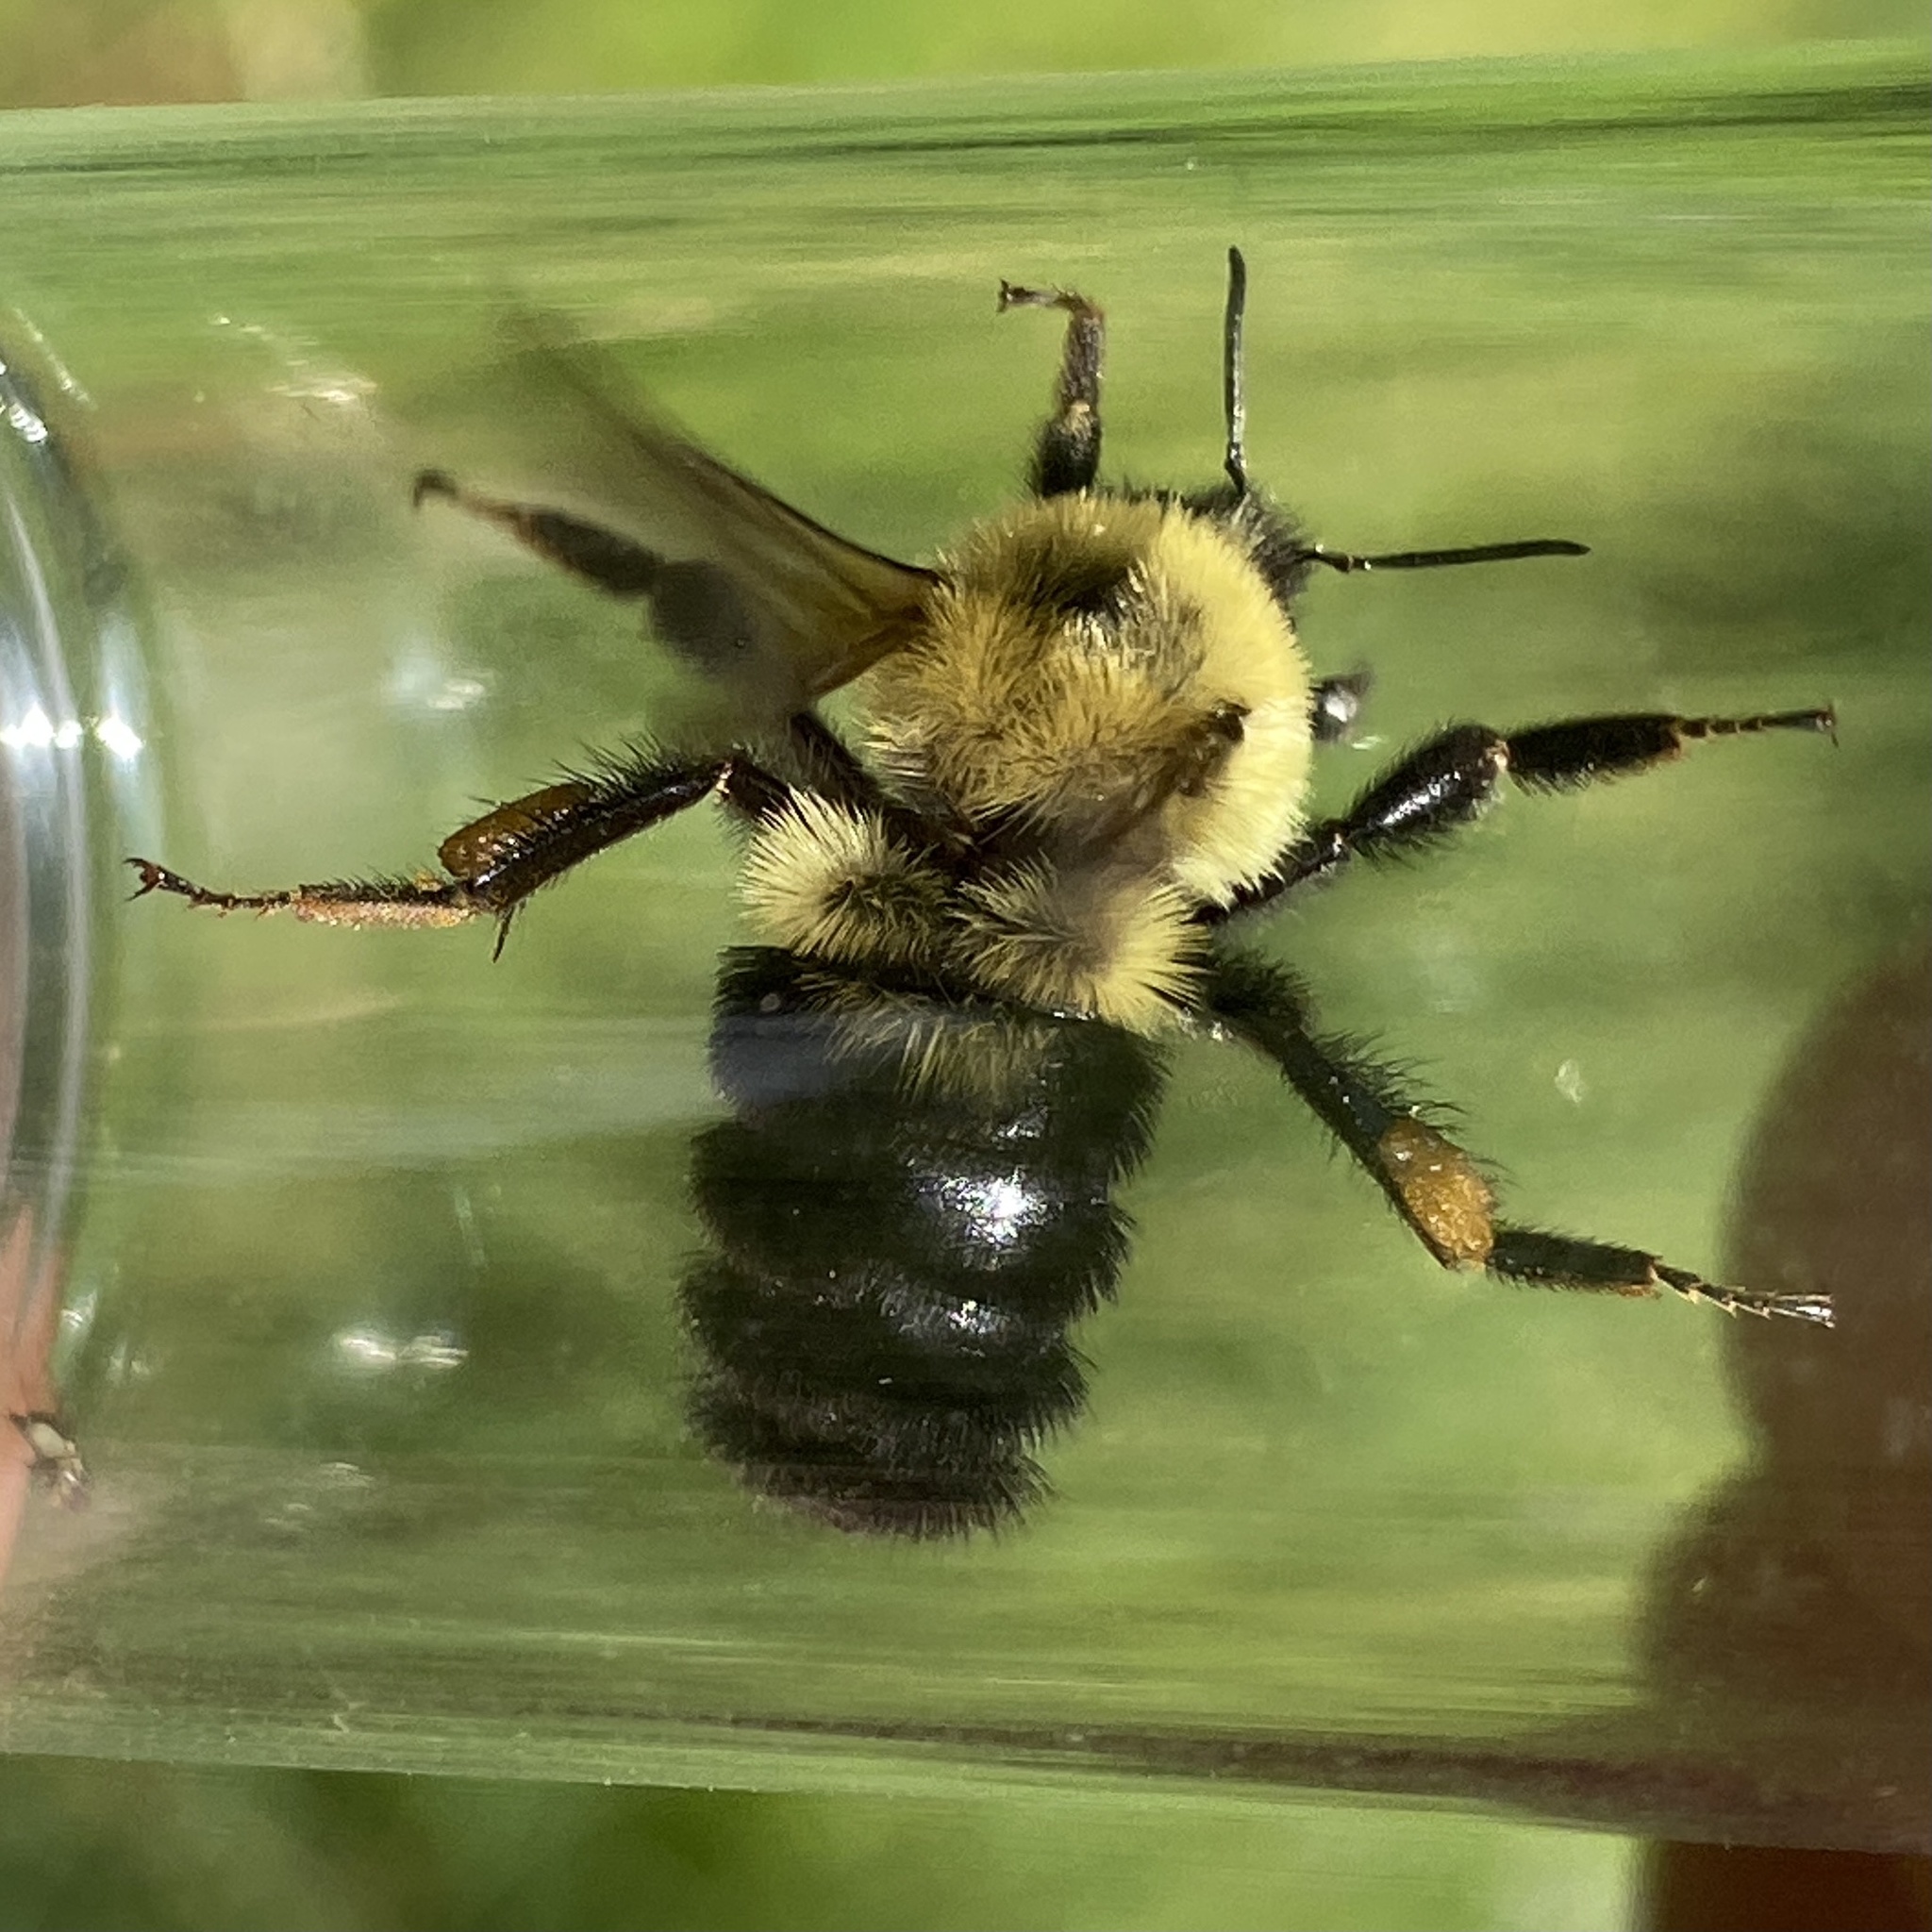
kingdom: Animalia
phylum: Arthropoda
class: Insecta
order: Hymenoptera
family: Apidae
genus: Bombus
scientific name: Bombus bimaculatus
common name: Two-spotted bumble bee
